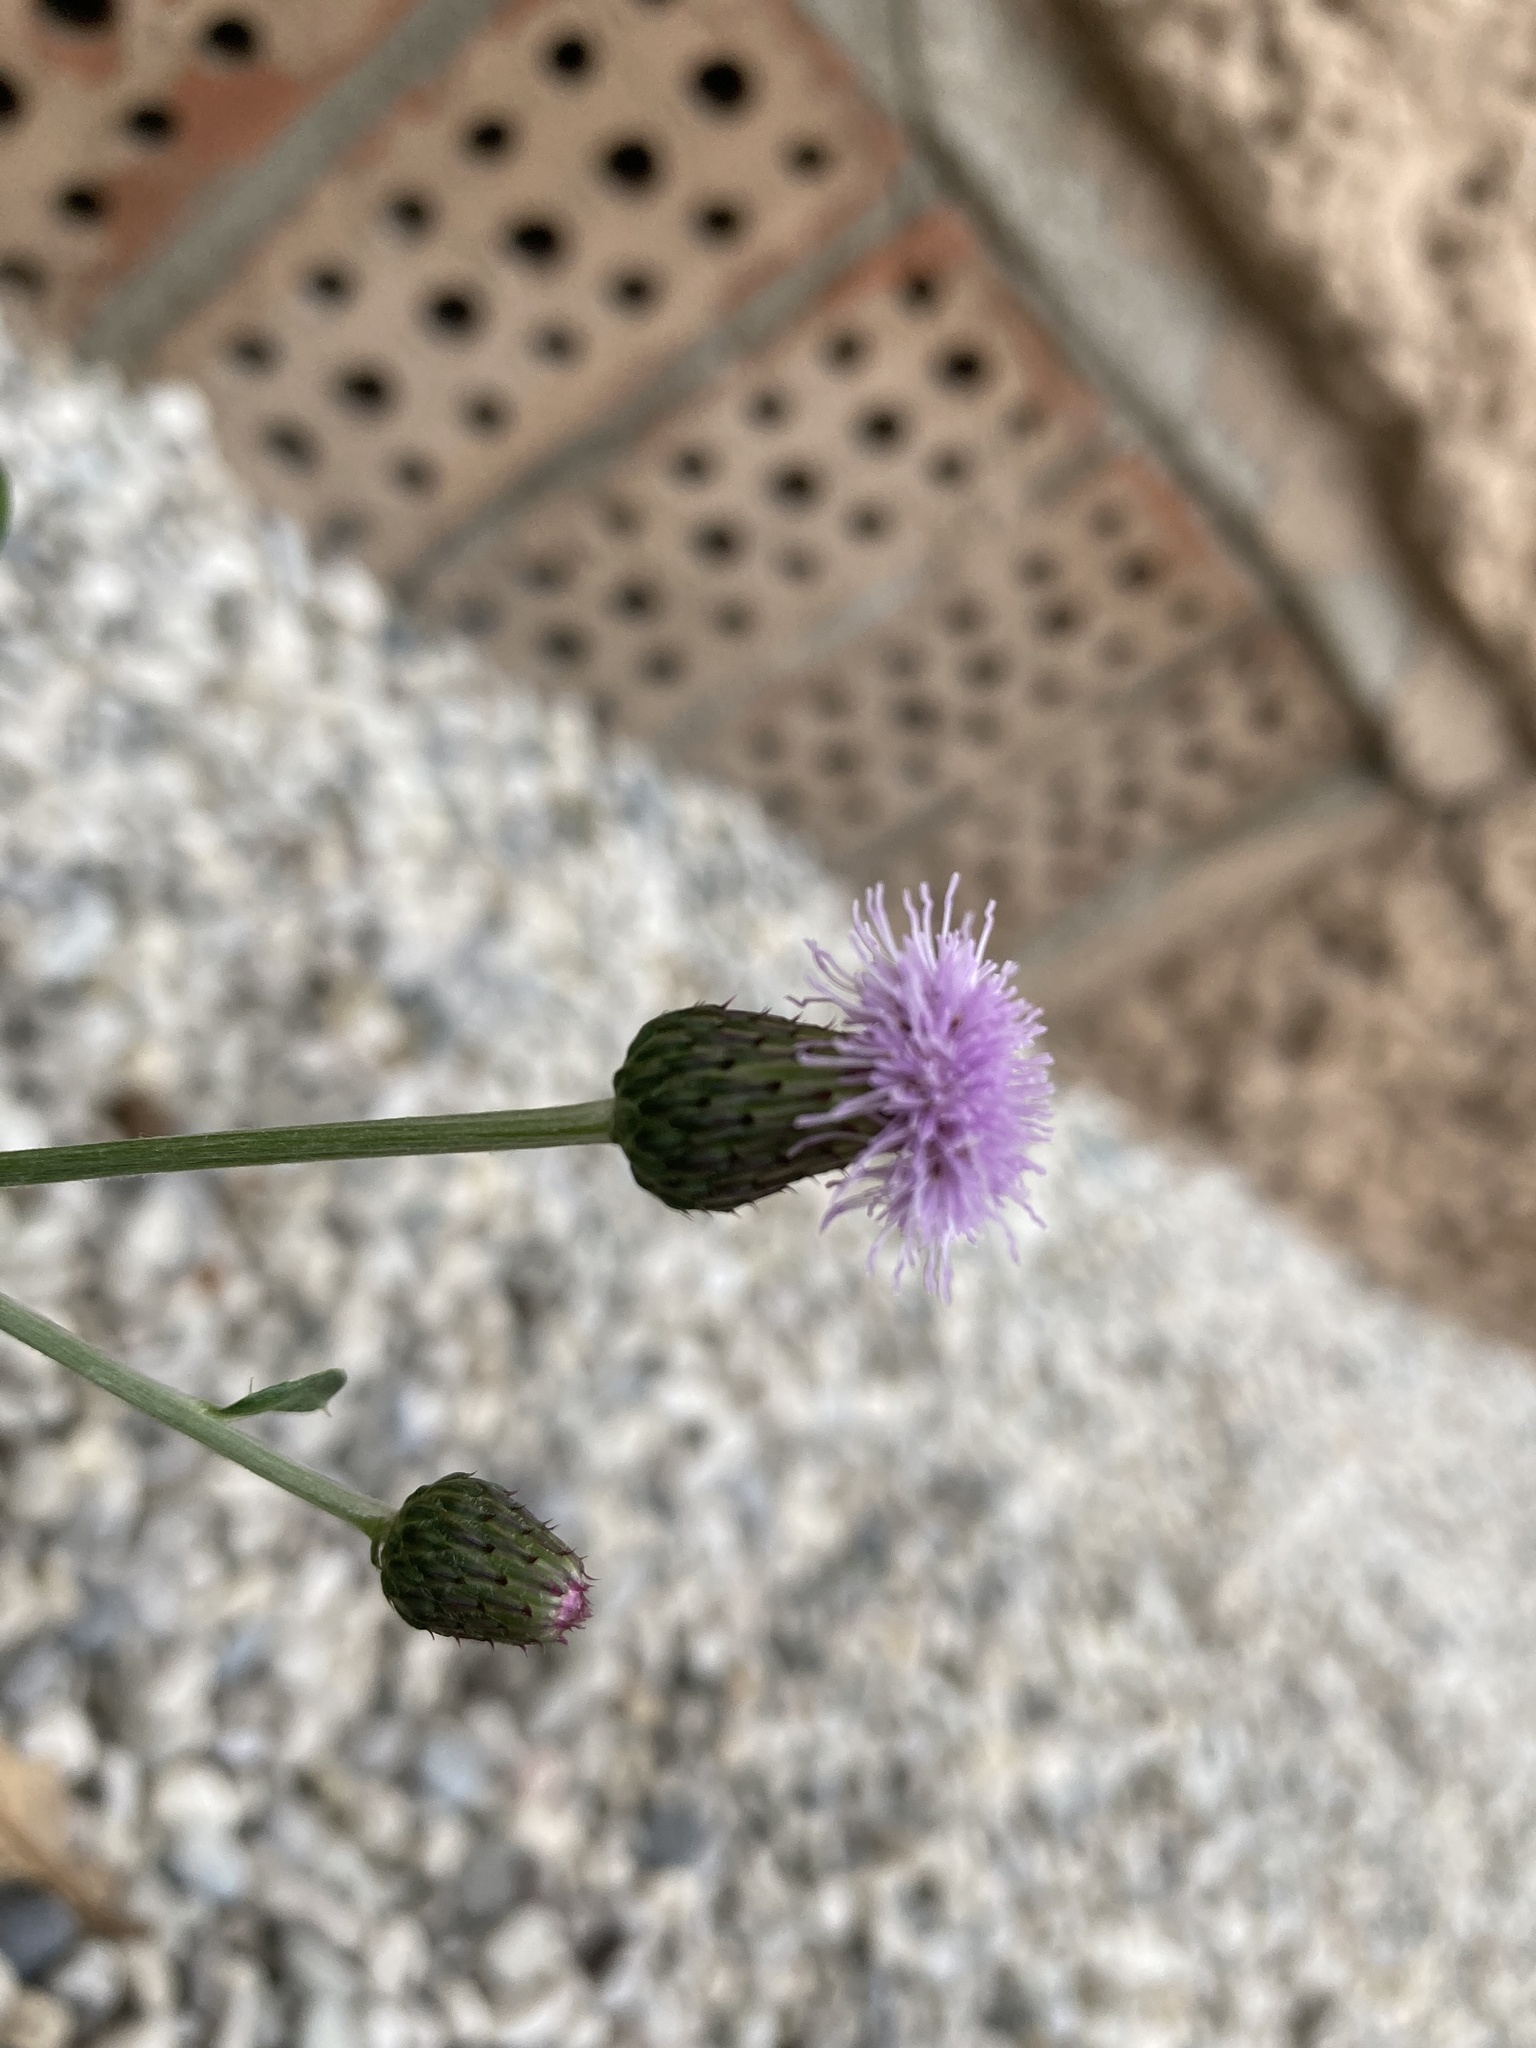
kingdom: Plantae
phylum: Tracheophyta
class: Magnoliopsida
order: Asterales
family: Asteraceae
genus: Cirsium
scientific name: Cirsium arvense
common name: Creeping thistle
